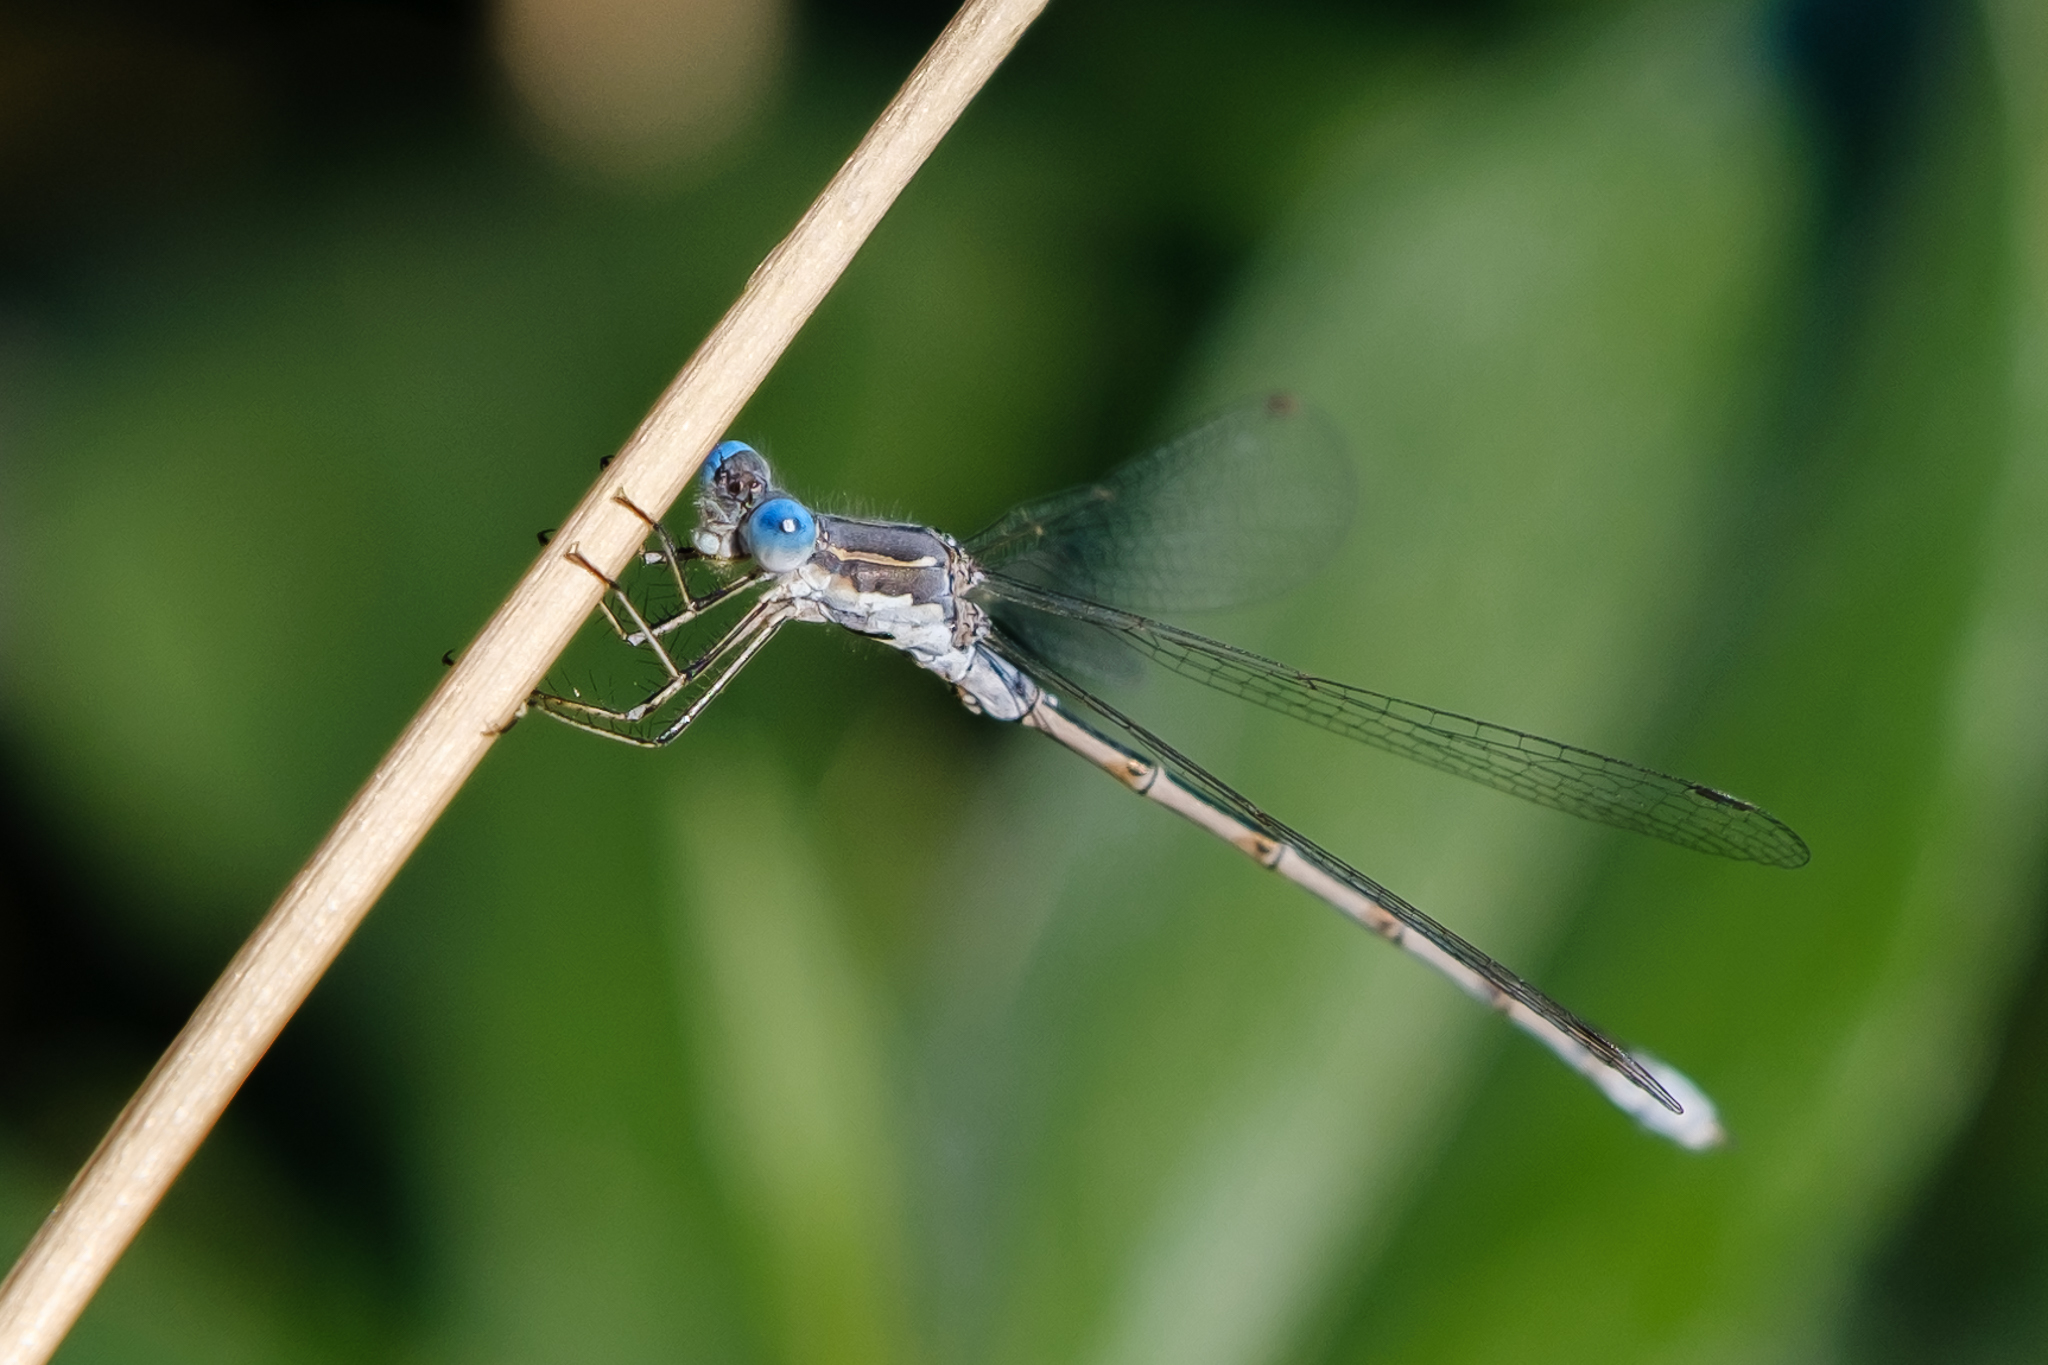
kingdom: Animalia
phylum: Arthropoda
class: Insecta
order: Odonata
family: Lestidae
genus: Lestes
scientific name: Lestes congener
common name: Spotted spreadwing
